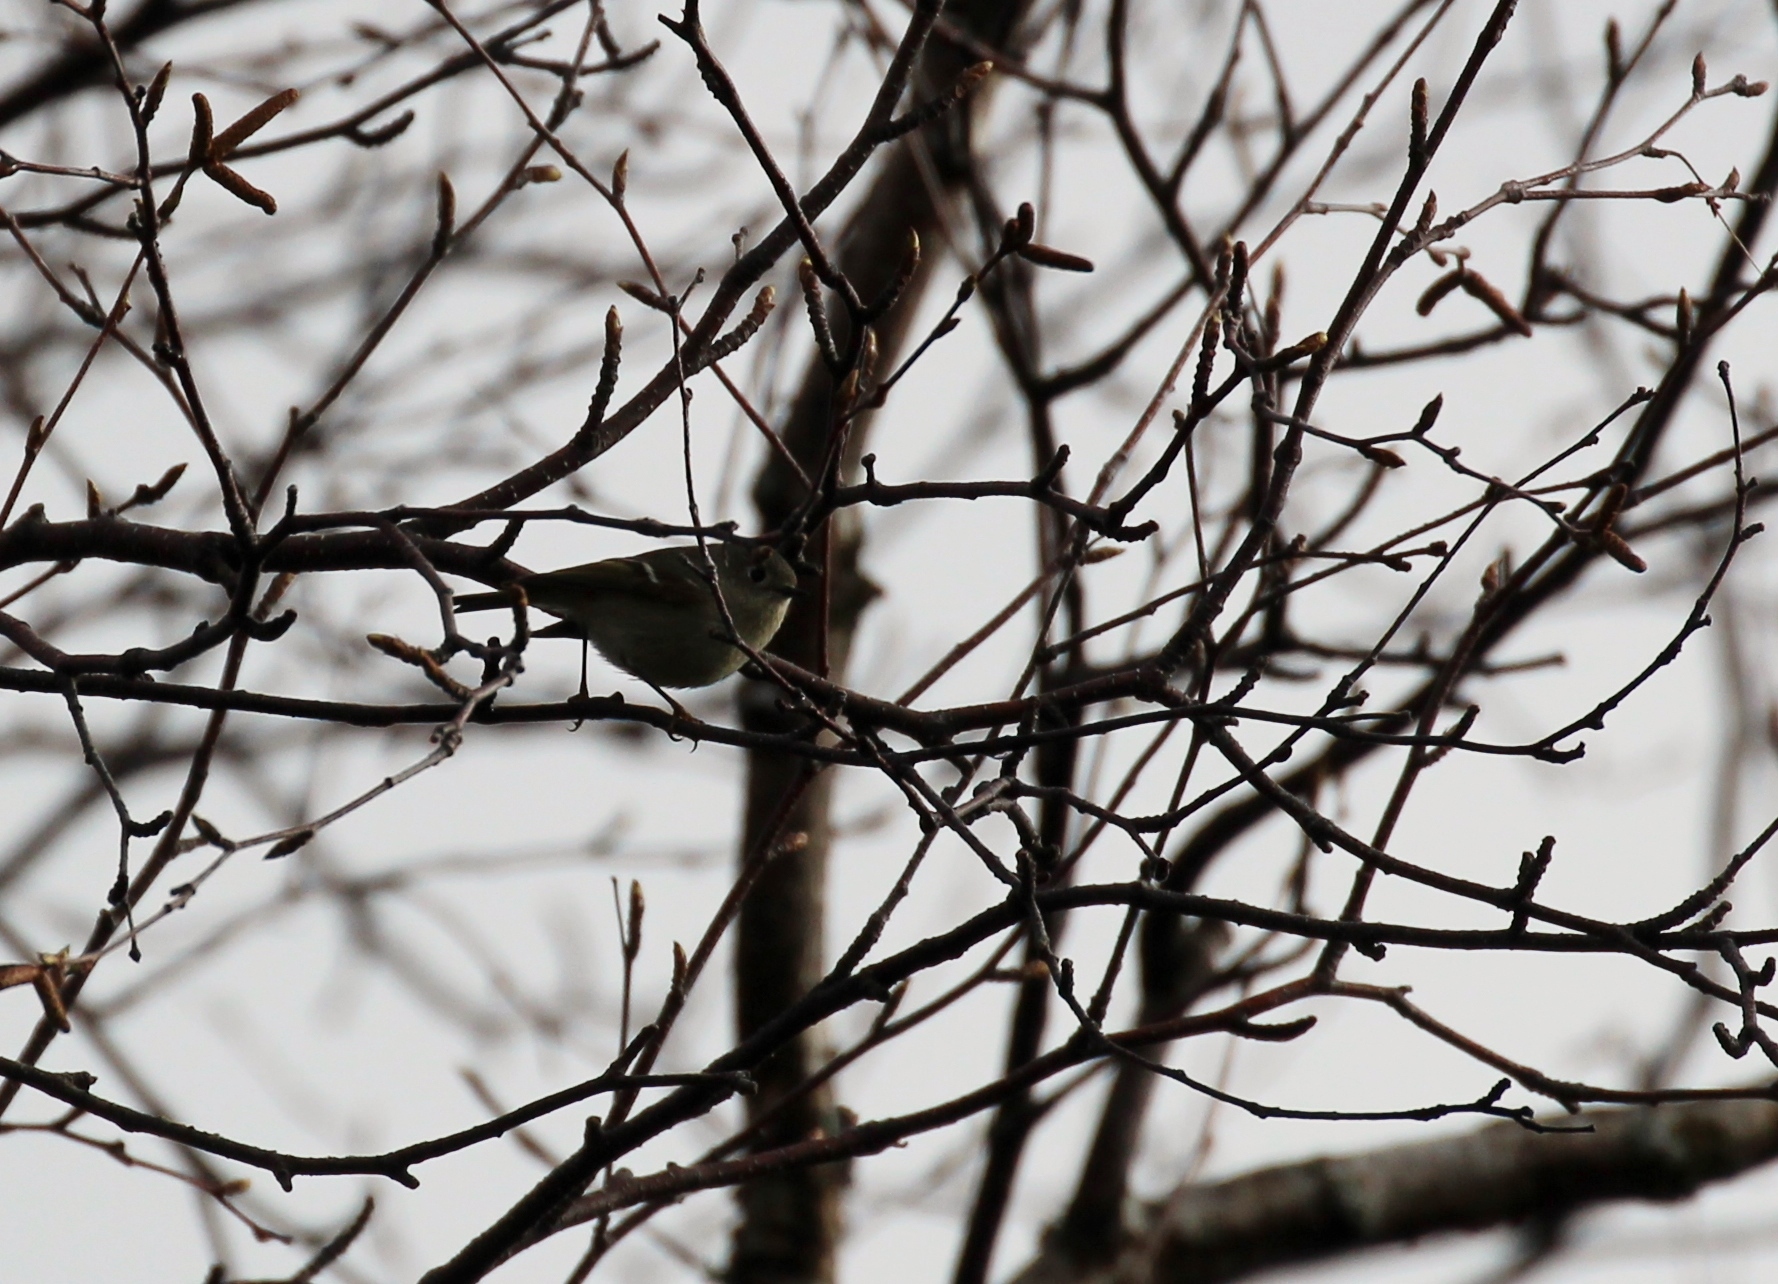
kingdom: Animalia
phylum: Chordata
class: Aves
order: Passeriformes
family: Regulidae
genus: Regulus
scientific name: Regulus calendula
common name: Ruby-crowned kinglet
